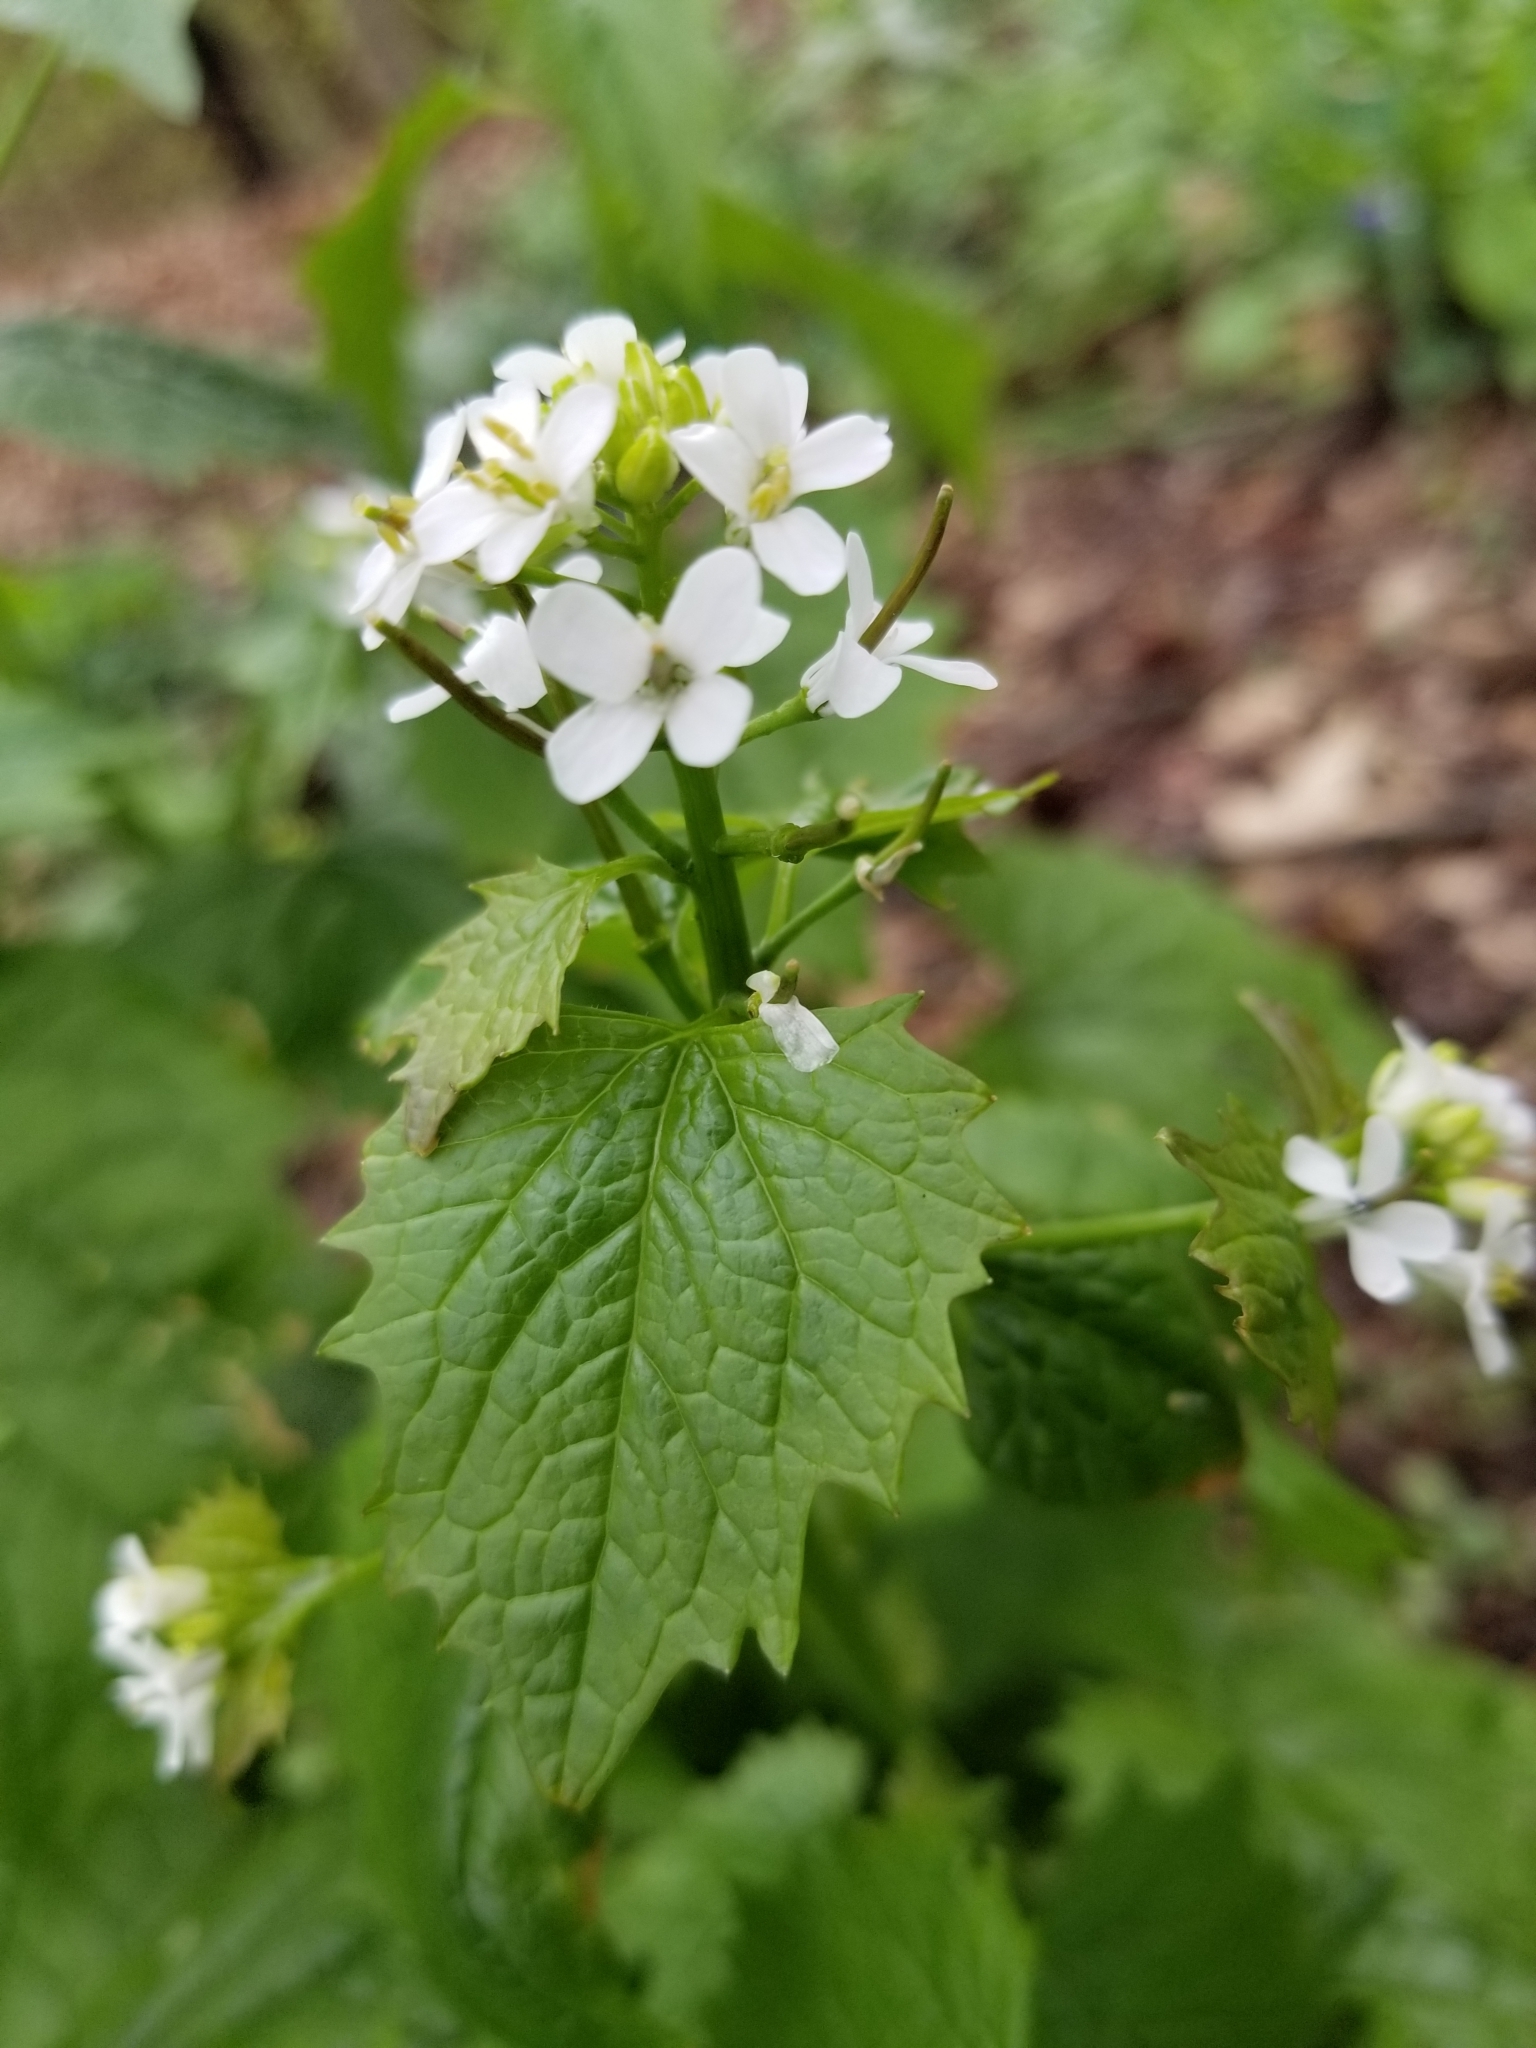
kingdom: Plantae
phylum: Tracheophyta
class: Magnoliopsida
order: Brassicales
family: Brassicaceae
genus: Alliaria
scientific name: Alliaria petiolata
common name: Garlic mustard
